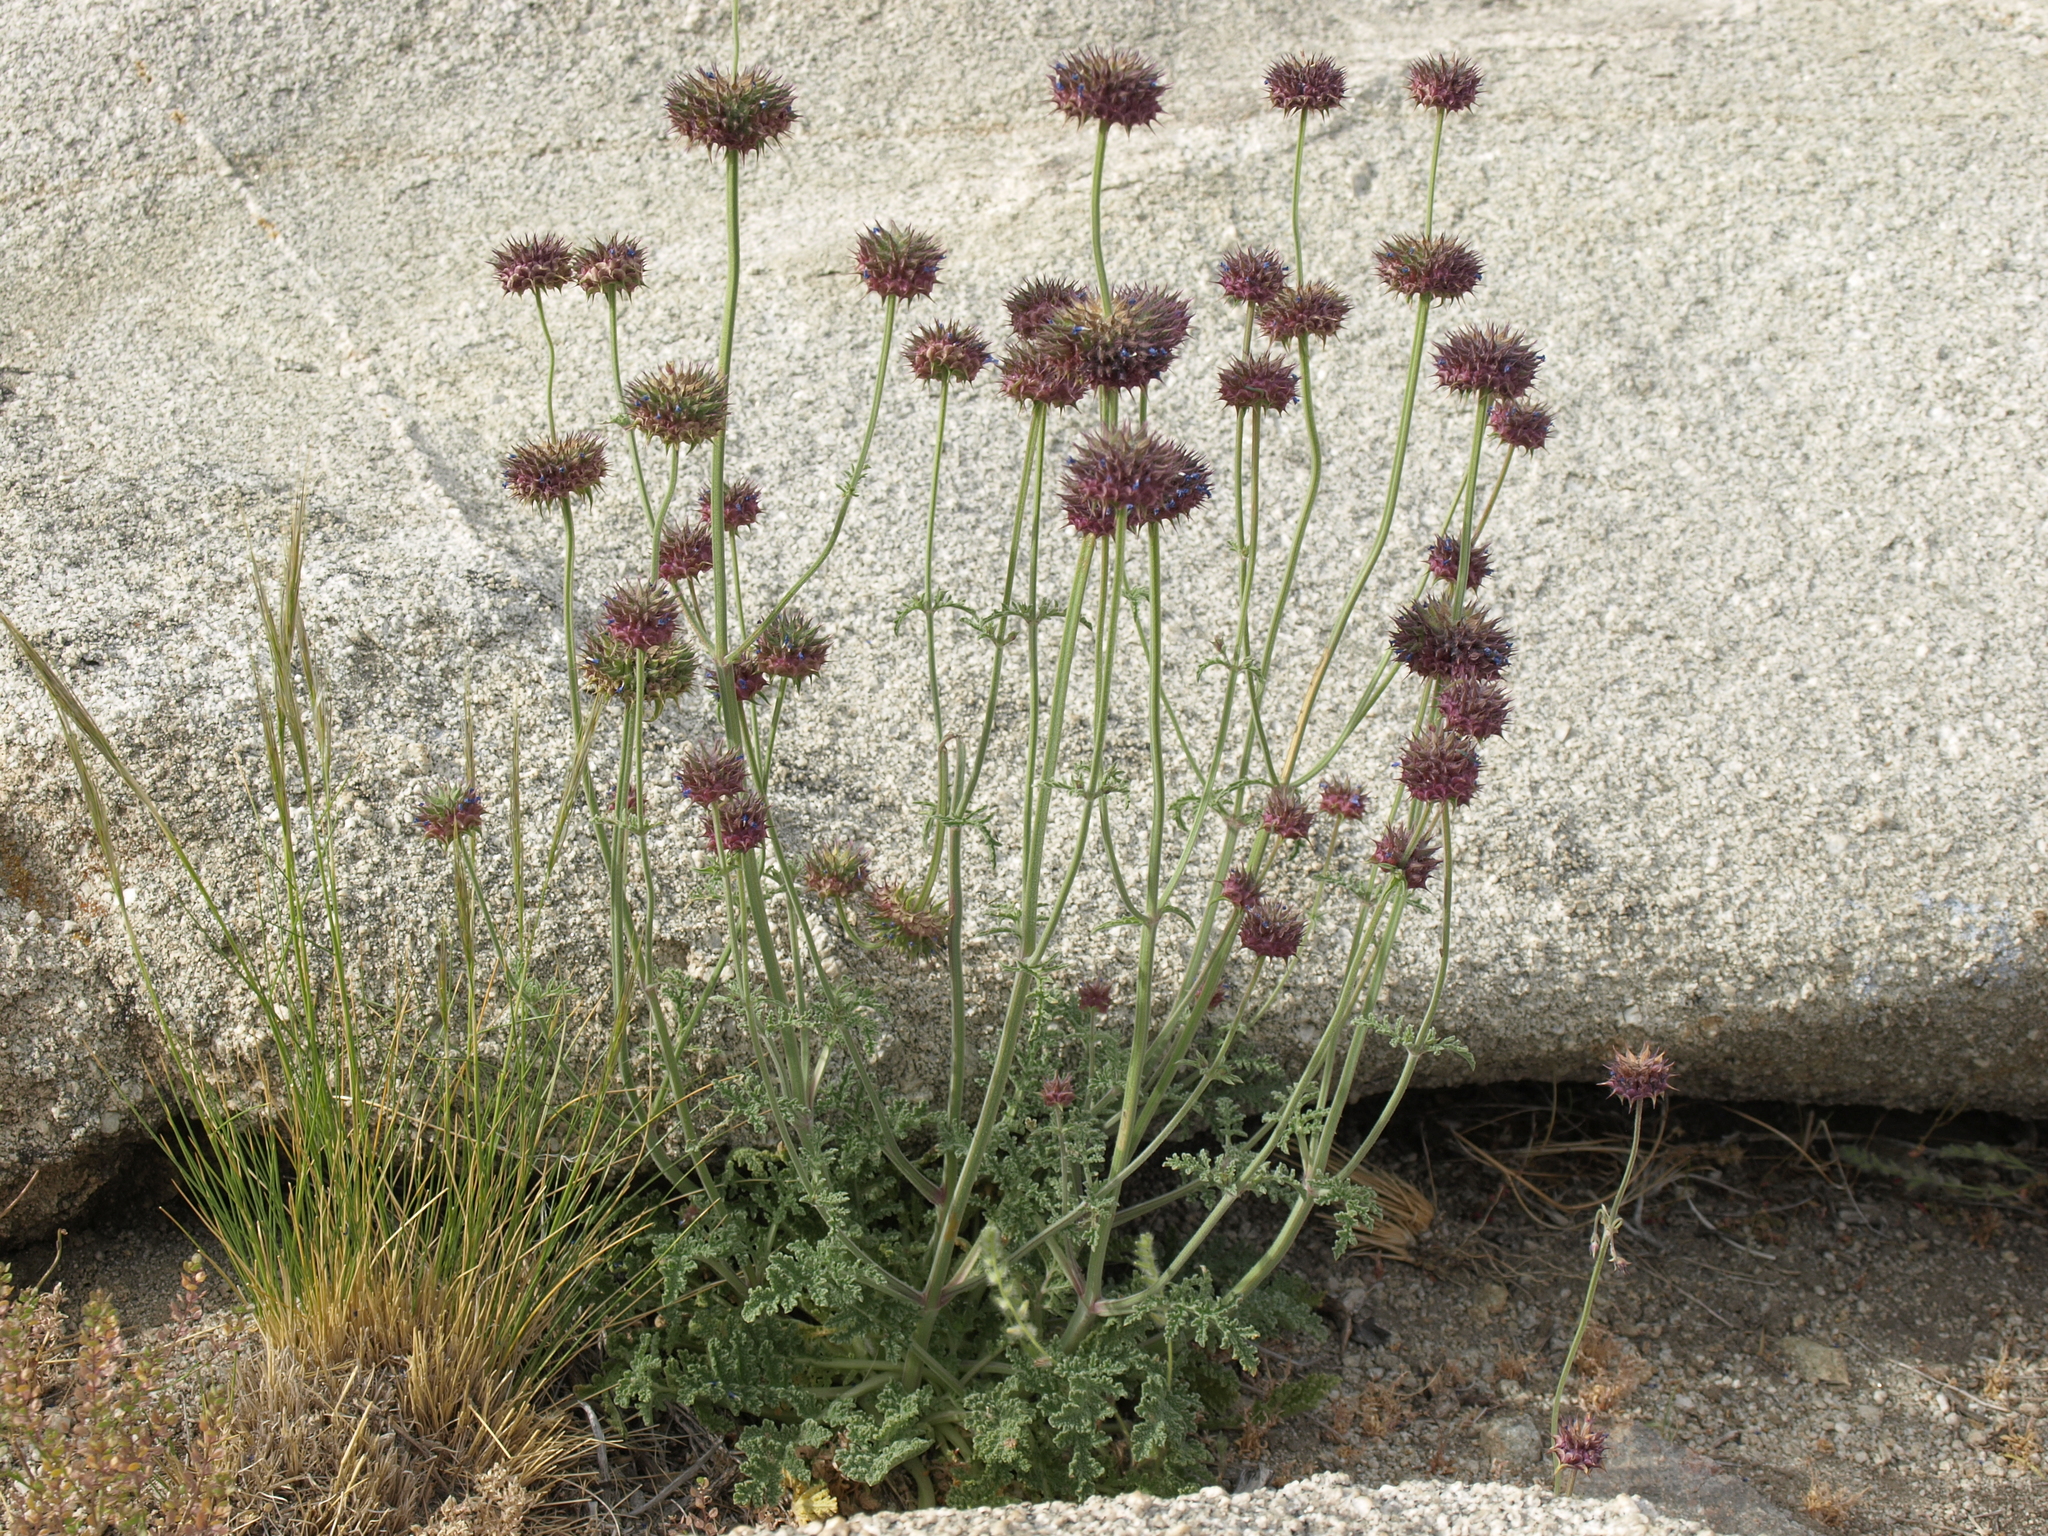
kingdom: Plantae
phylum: Tracheophyta
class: Magnoliopsida
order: Lamiales
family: Lamiaceae
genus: Salvia
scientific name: Salvia columbariae
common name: Chia
